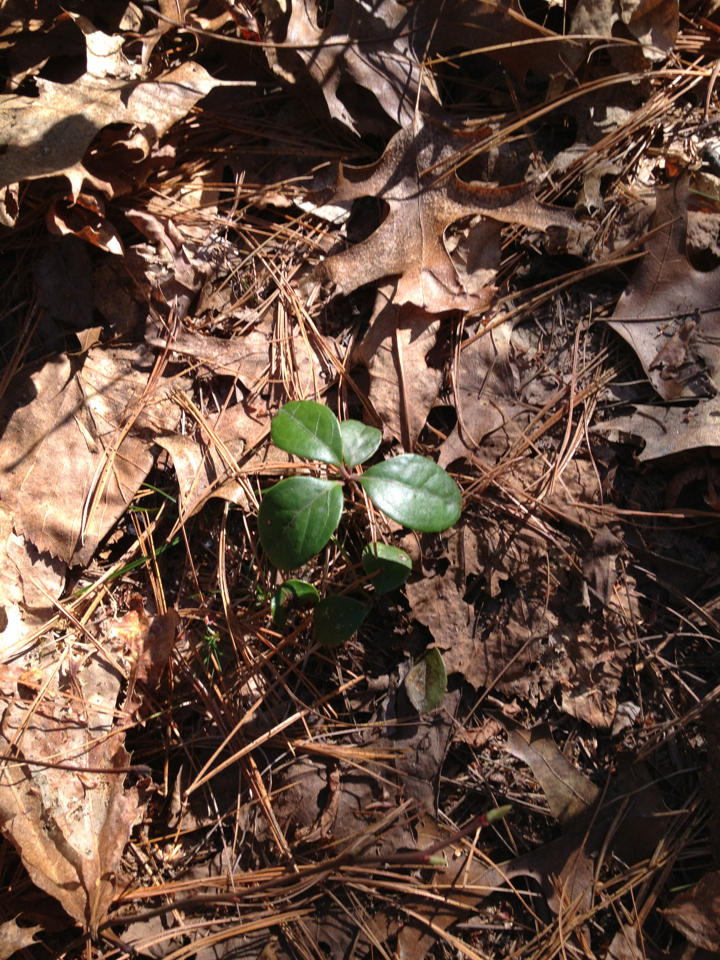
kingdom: Plantae
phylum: Tracheophyta
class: Magnoliopsida
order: Ericales
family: Ericaceae
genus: Gaultheria
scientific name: Gaultheria procumbens
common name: Checkerberry
